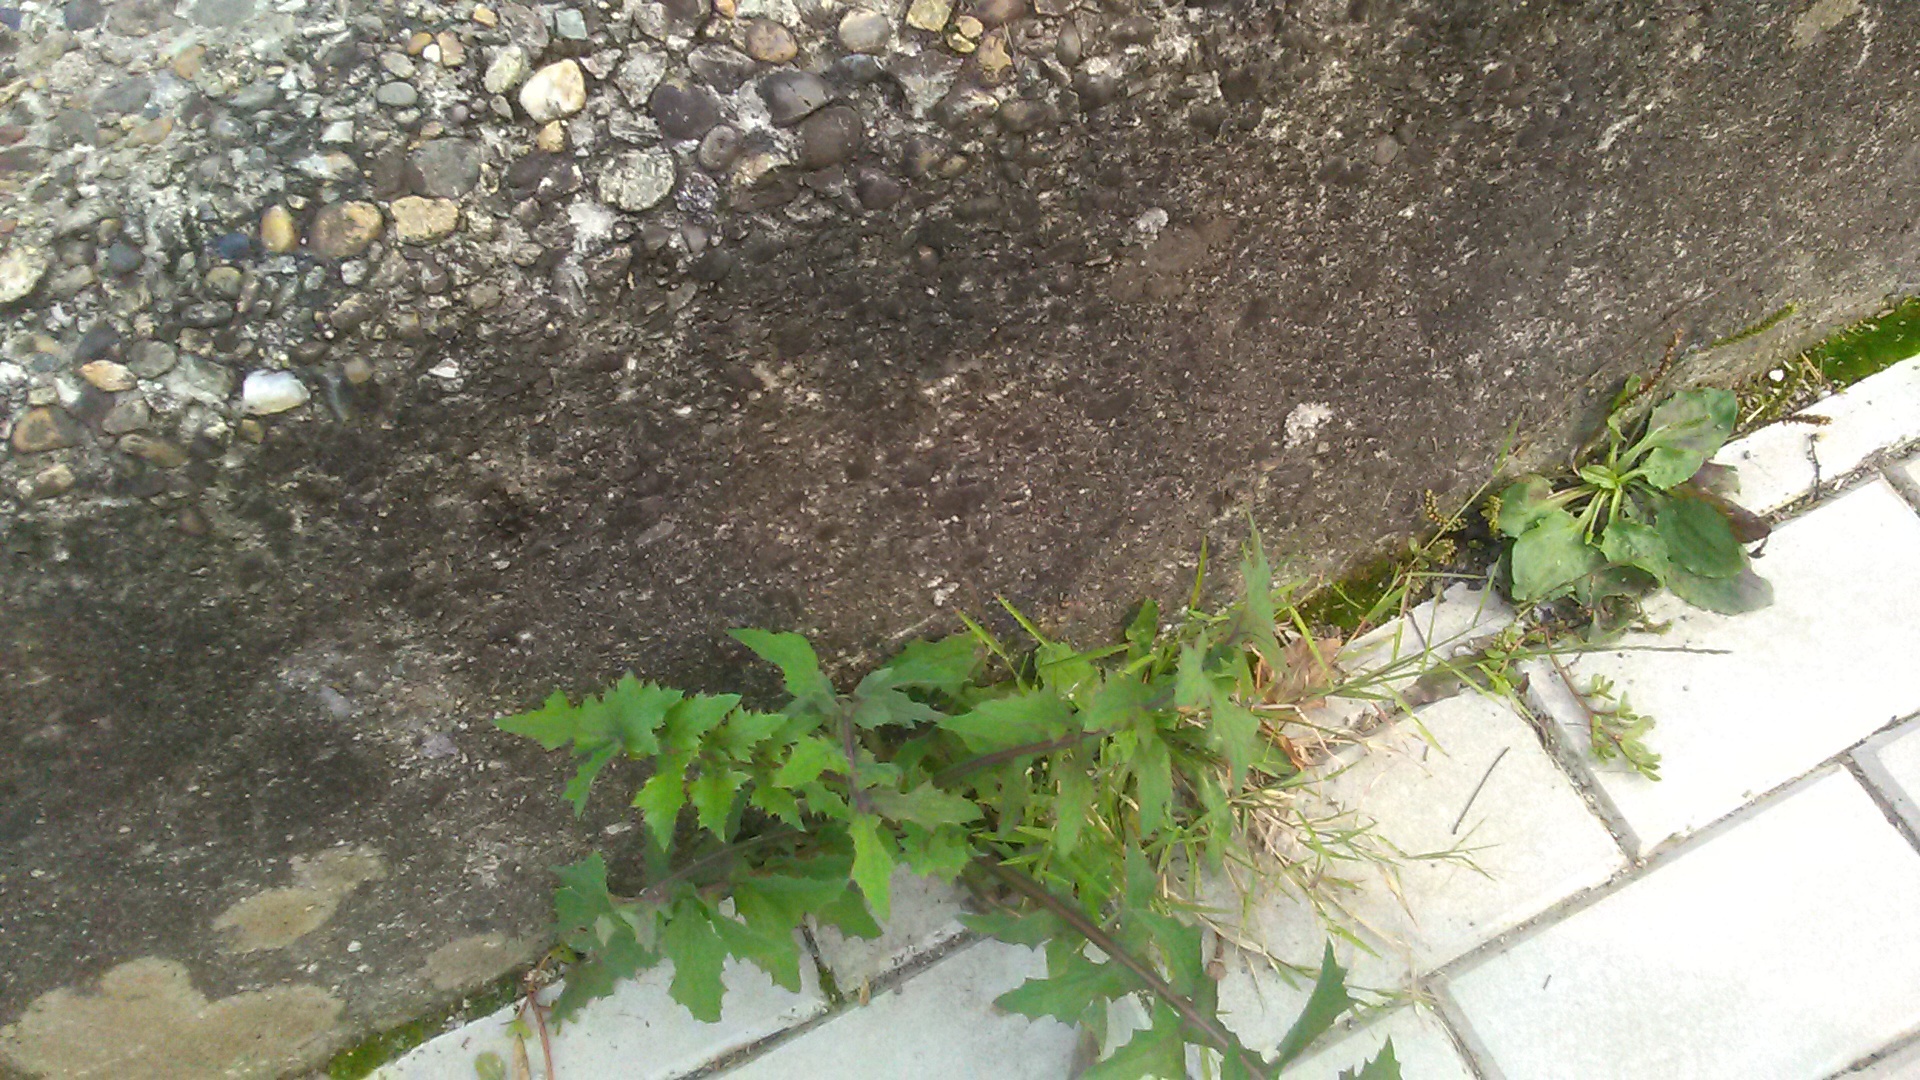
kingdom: Plantae
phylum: Tracheophyta
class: Magnoliopsida
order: Asterales
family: Asteraceae
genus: Sonchus
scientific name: Sonchus oleraceus
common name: Common sowthistle
